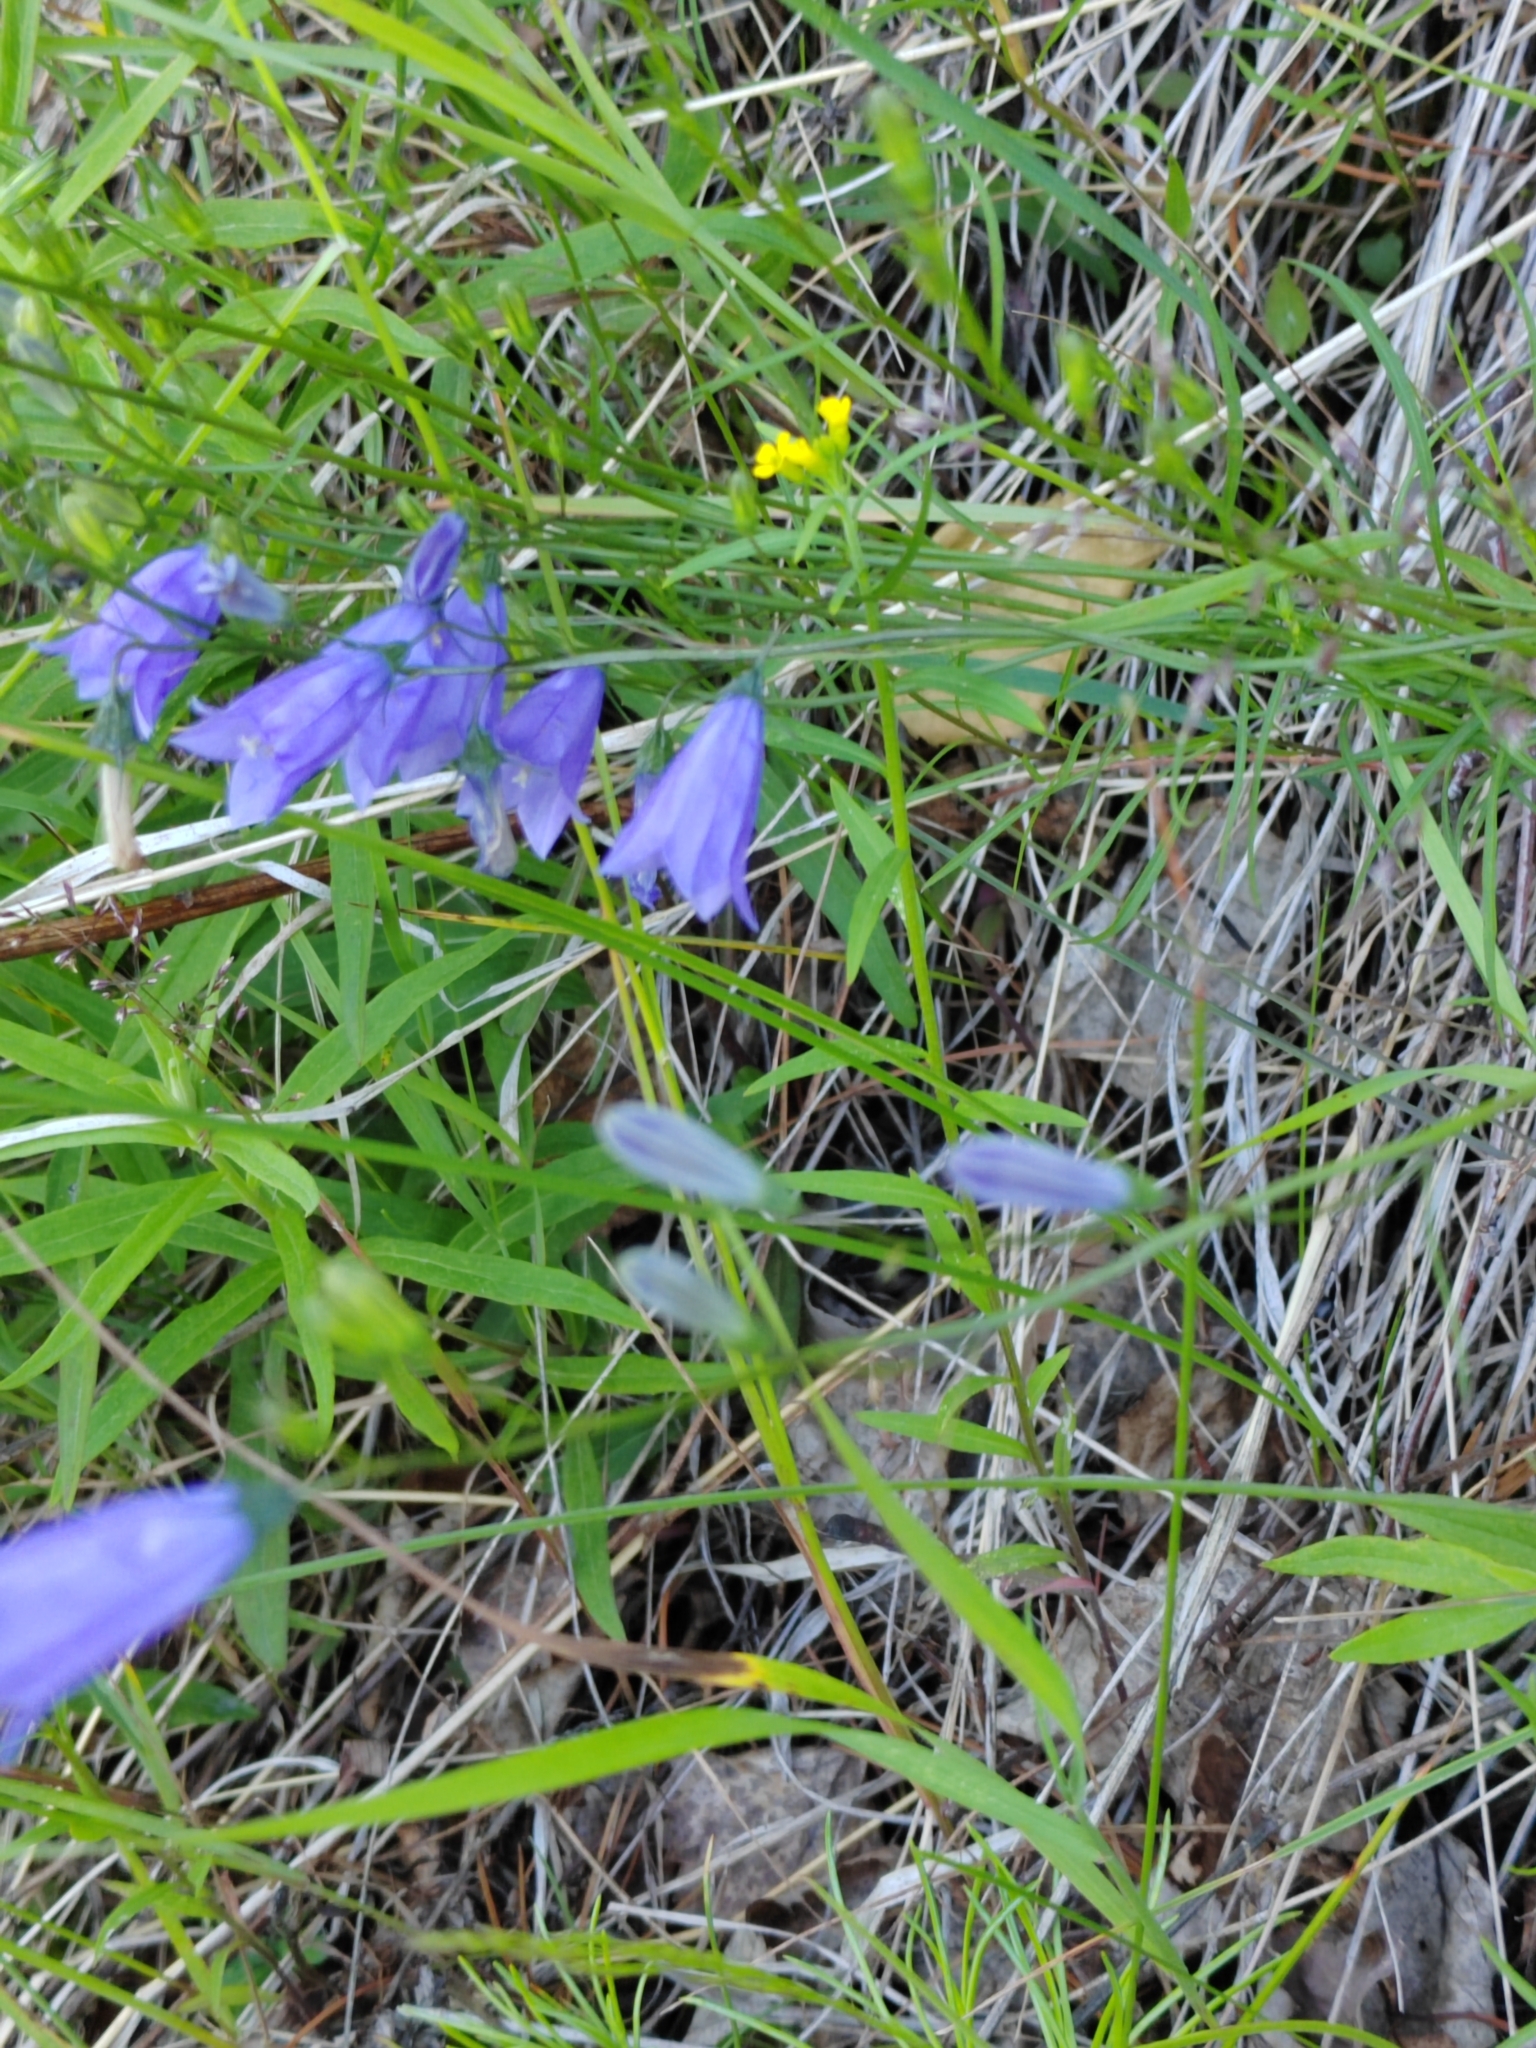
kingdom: Plantae
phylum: Tracheophyta
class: Magnoliopsida
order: Asterales
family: Campanulaceae
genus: Campanula
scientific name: Campanula rotundifolia
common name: Harebell
